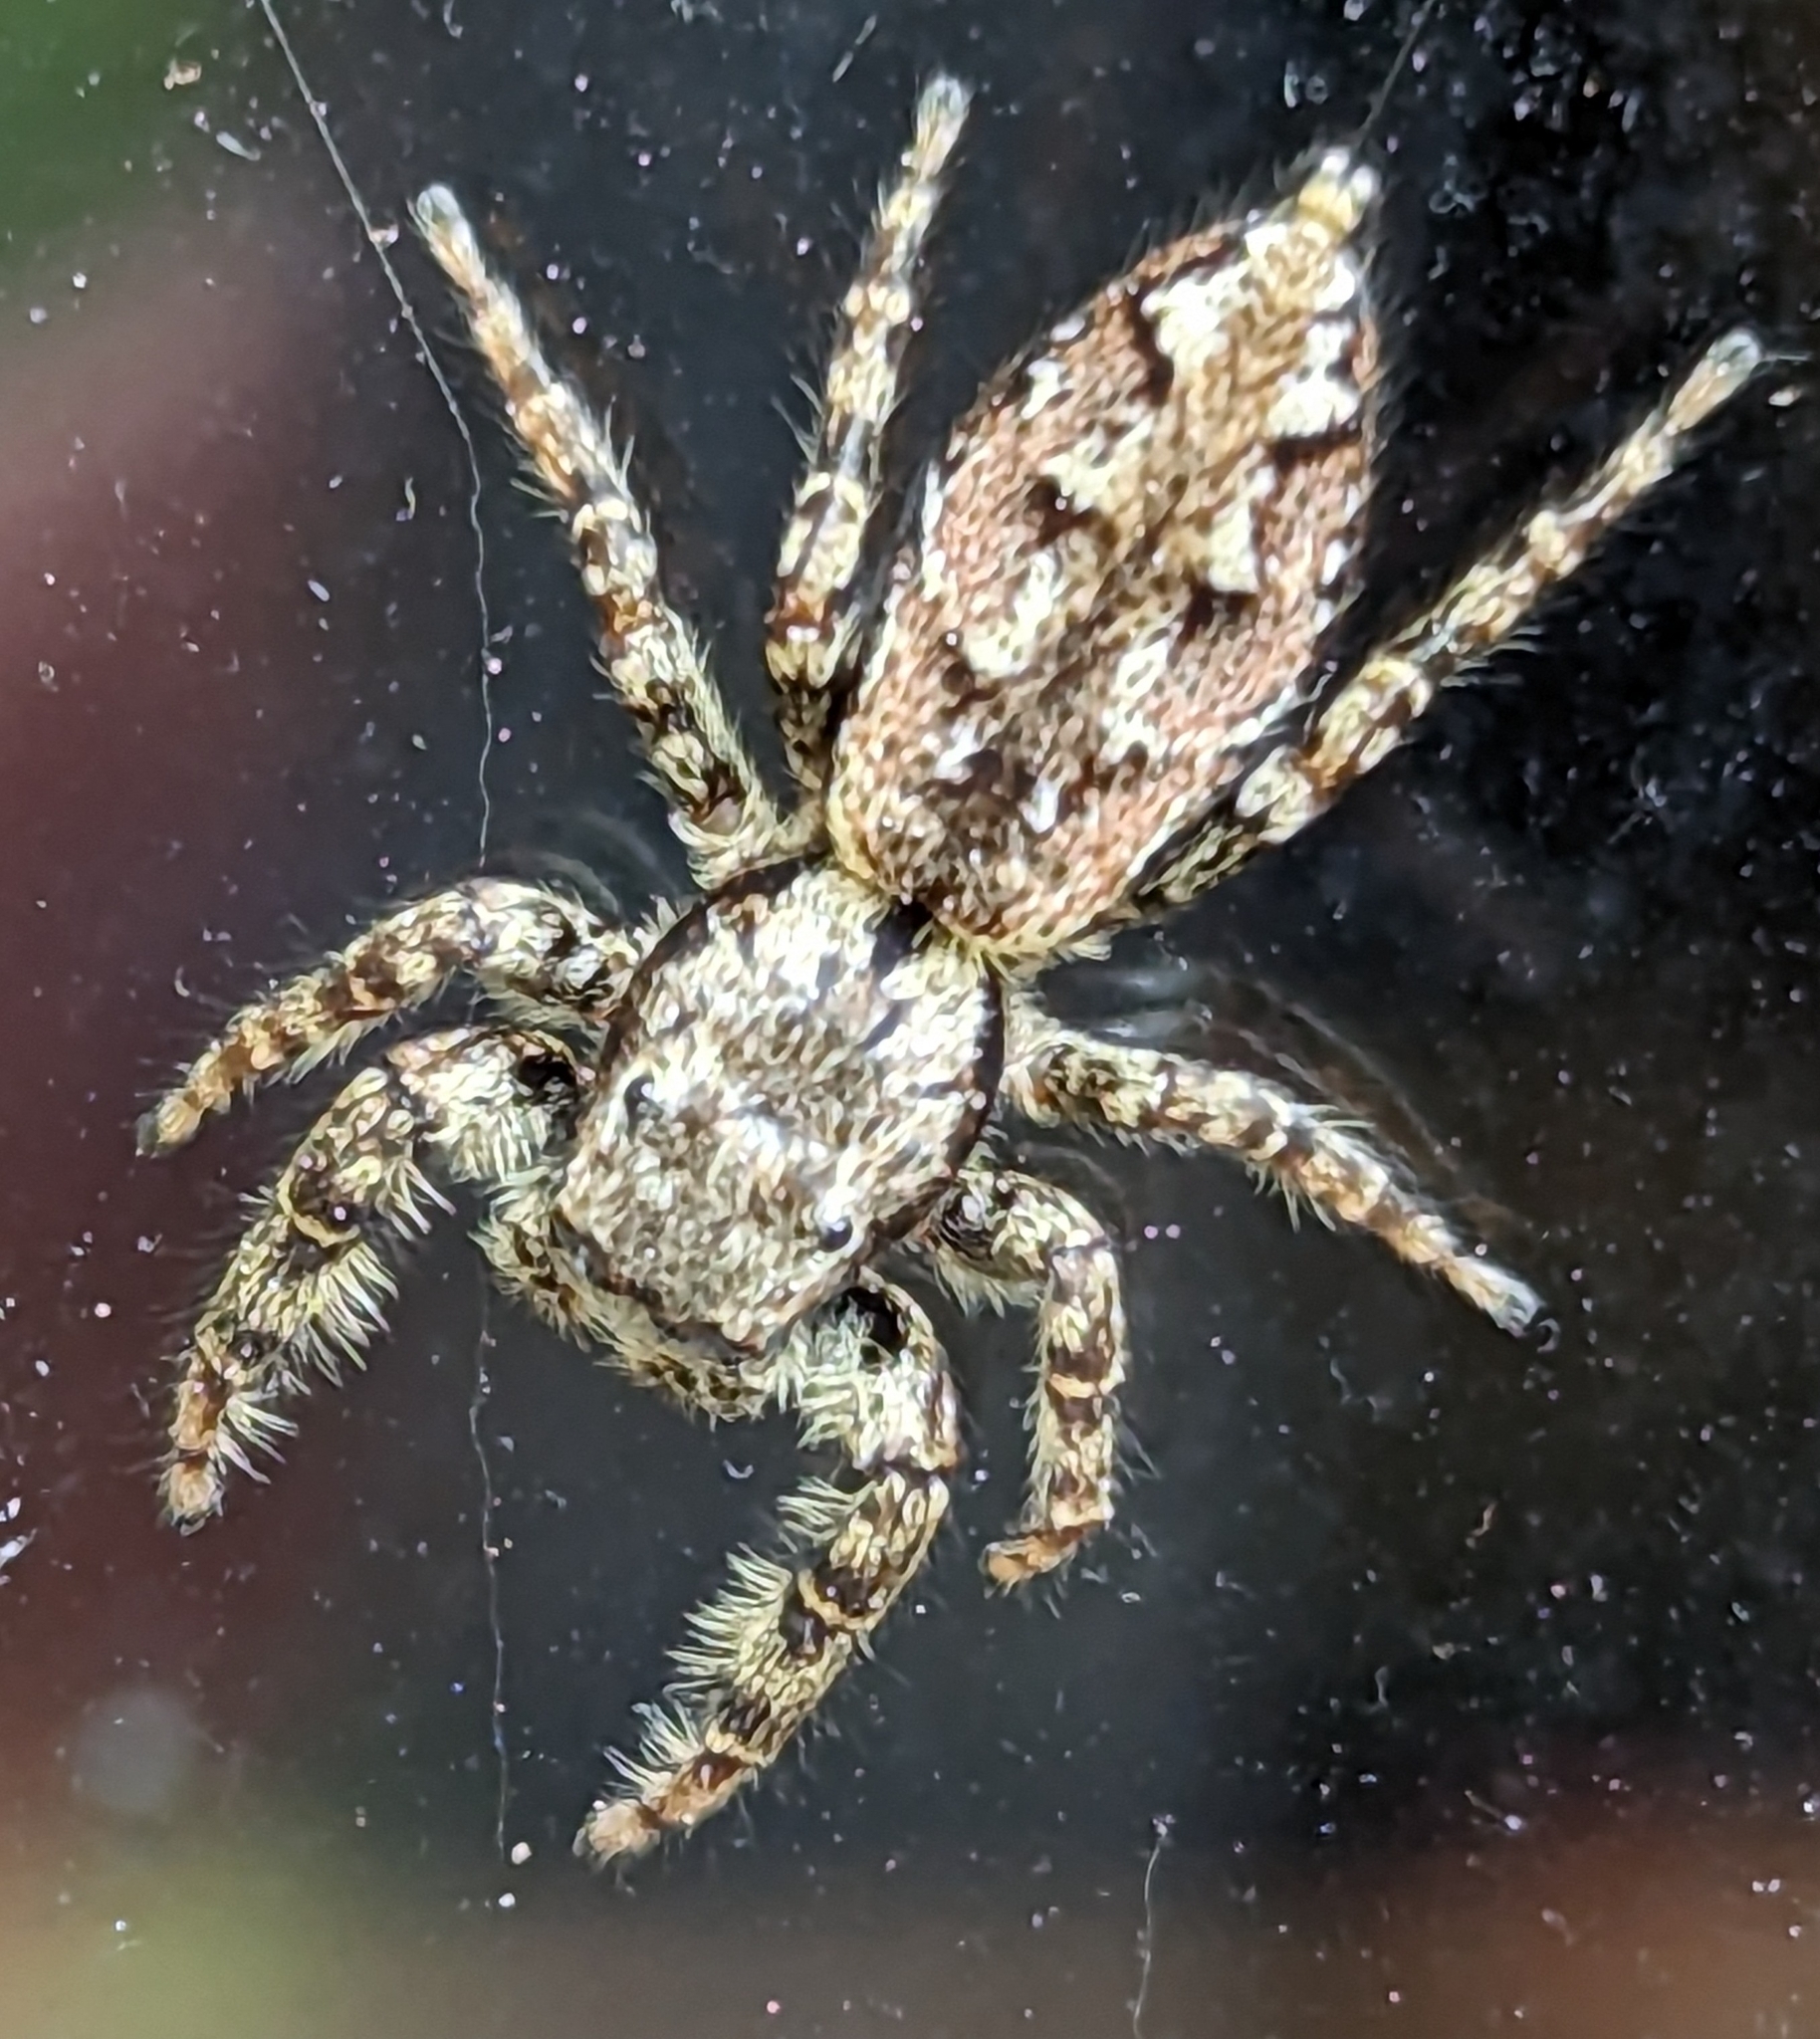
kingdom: Animalia
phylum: Arthropoda
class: Arachnida
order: Araneae
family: Salticidae
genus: Marpissa
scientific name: Marpissa muscosa
